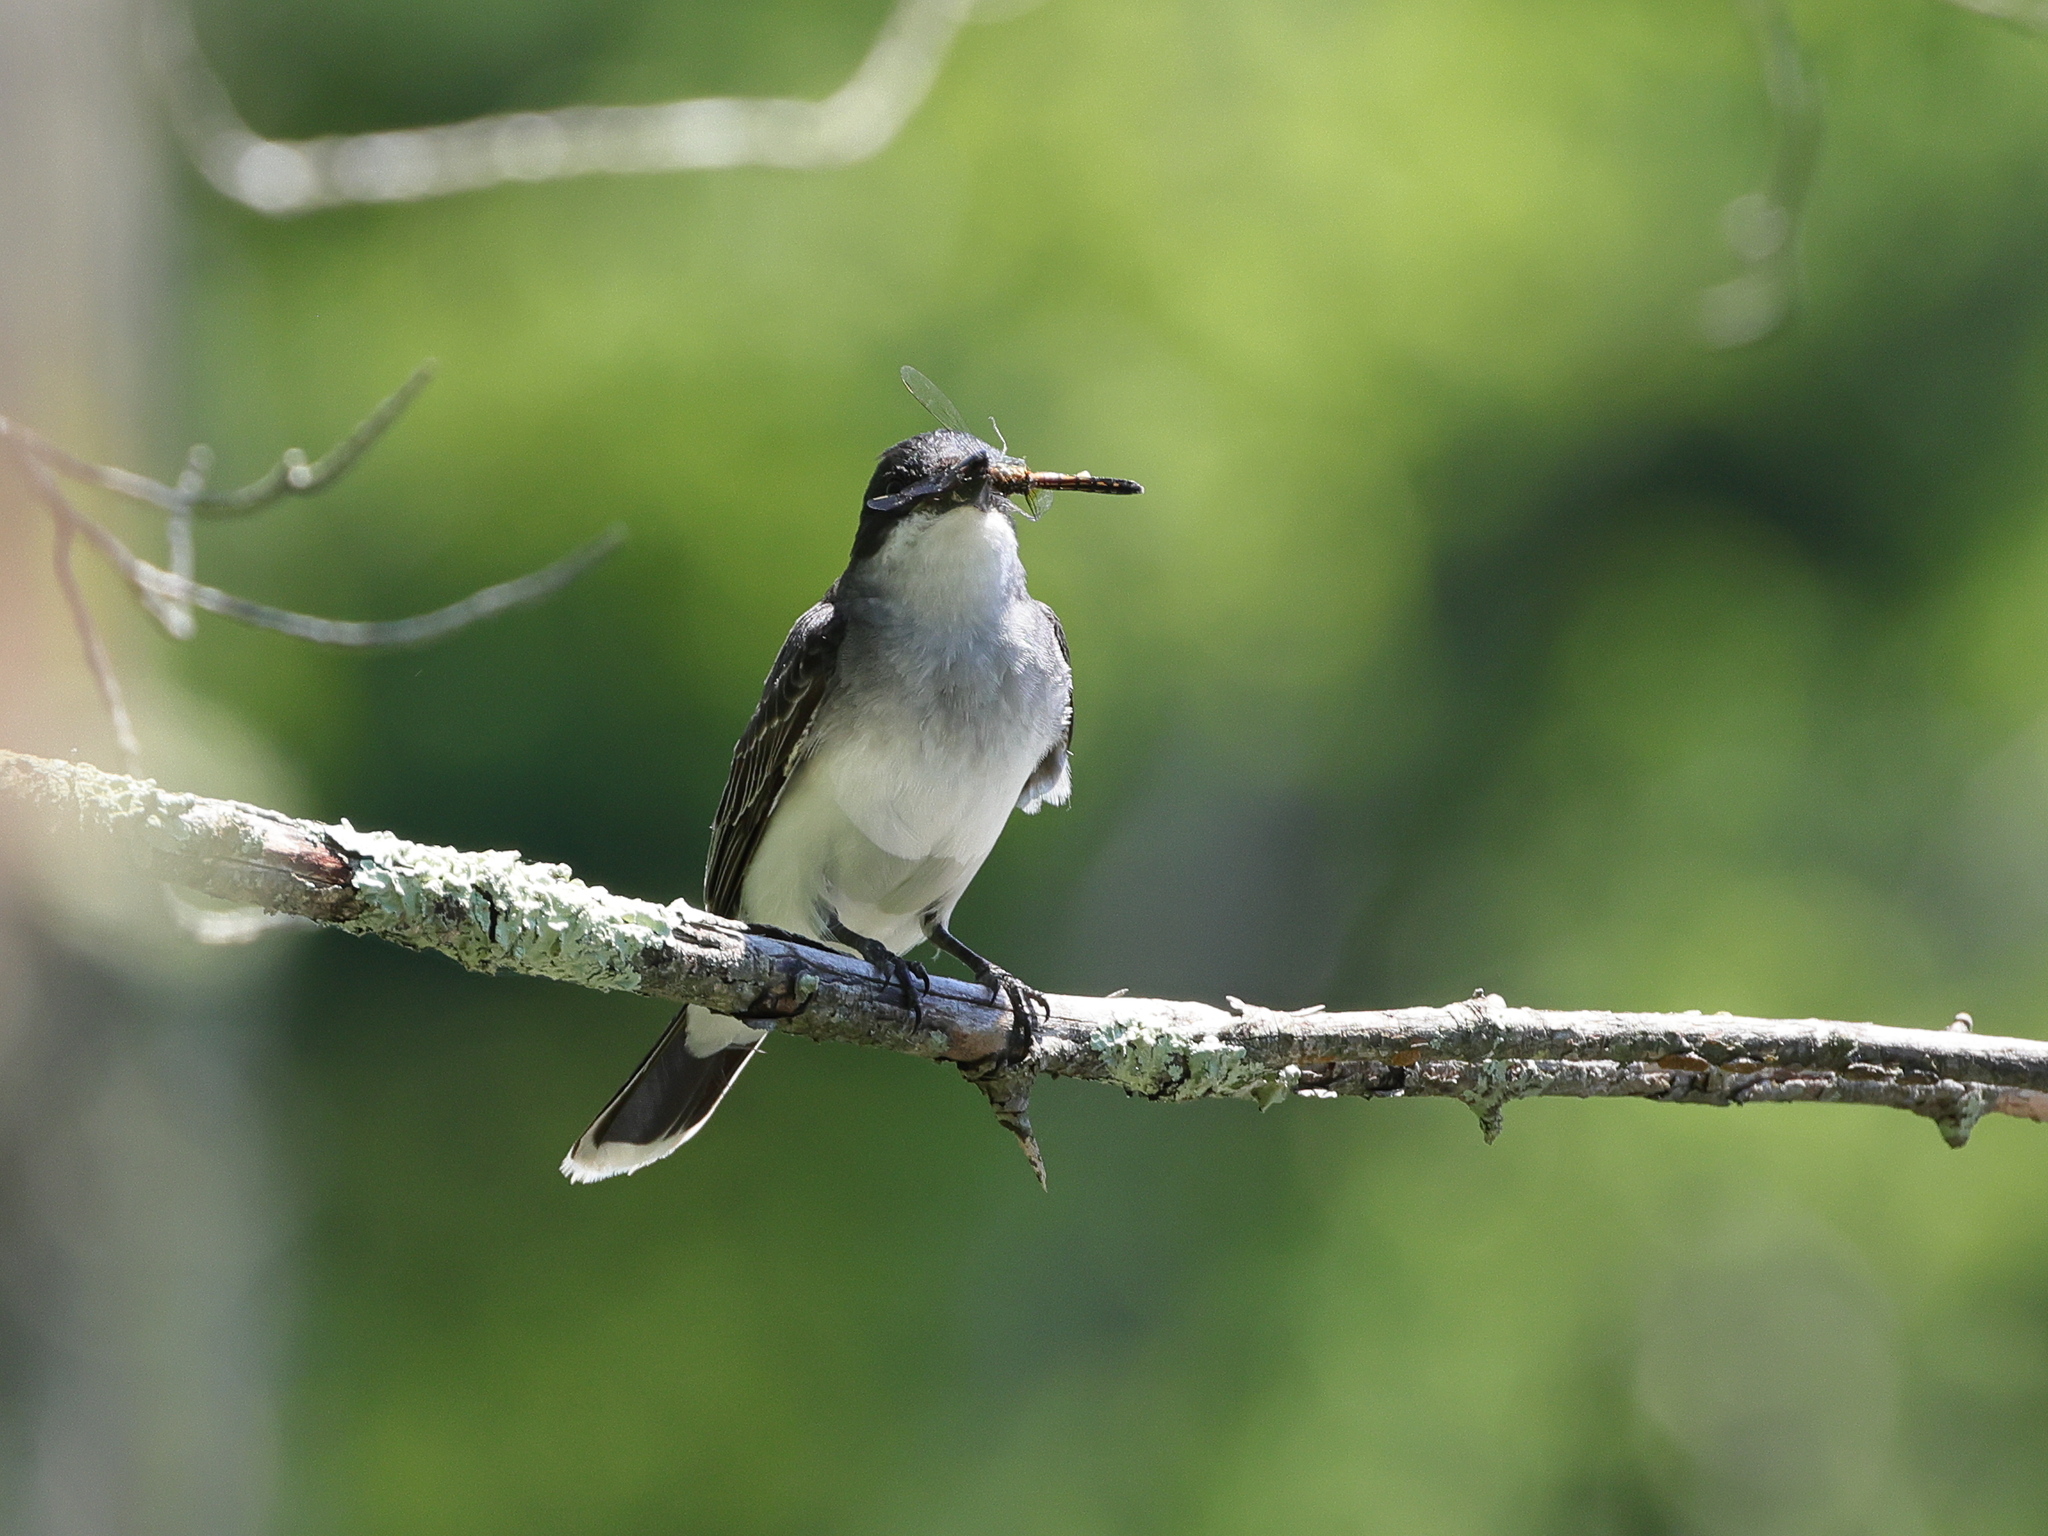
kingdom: Animalia
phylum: Chordata
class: Aves
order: Passeriformes
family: Tyrannidae
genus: Tyrannus
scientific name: Tyrannus tyrannus
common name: Eastern kingbird
